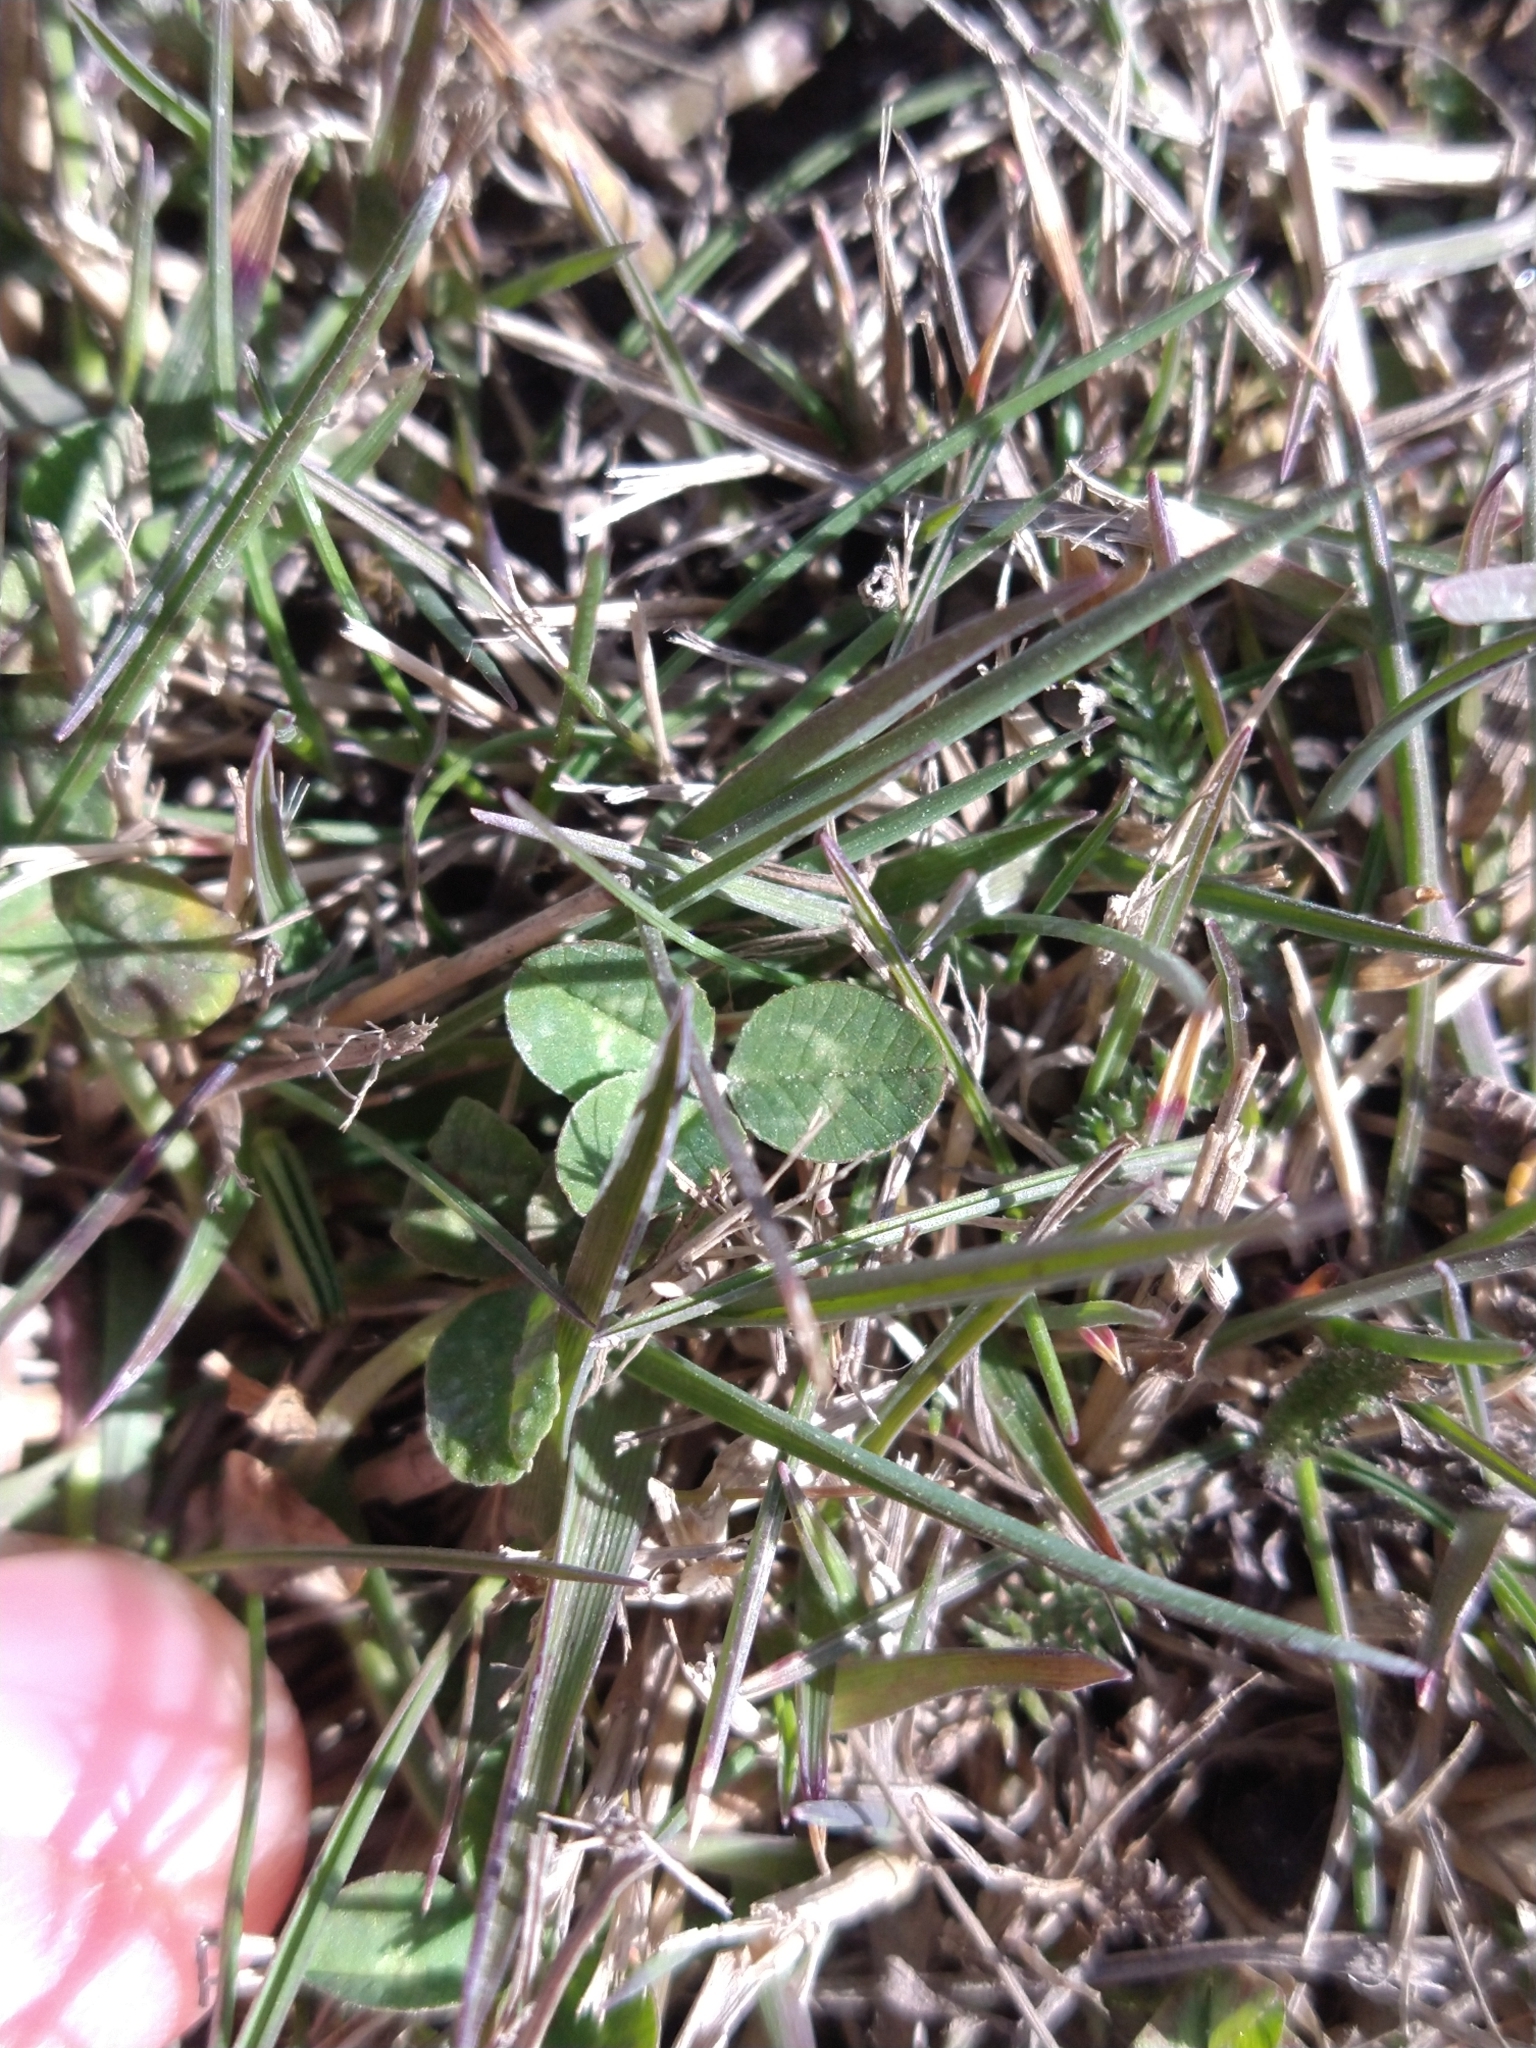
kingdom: Plantae
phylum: Tracheophyta
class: Magnoliopsida
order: Fabales
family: Fabaceae
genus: Trifolium
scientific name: Trifolium repens
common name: White clover
